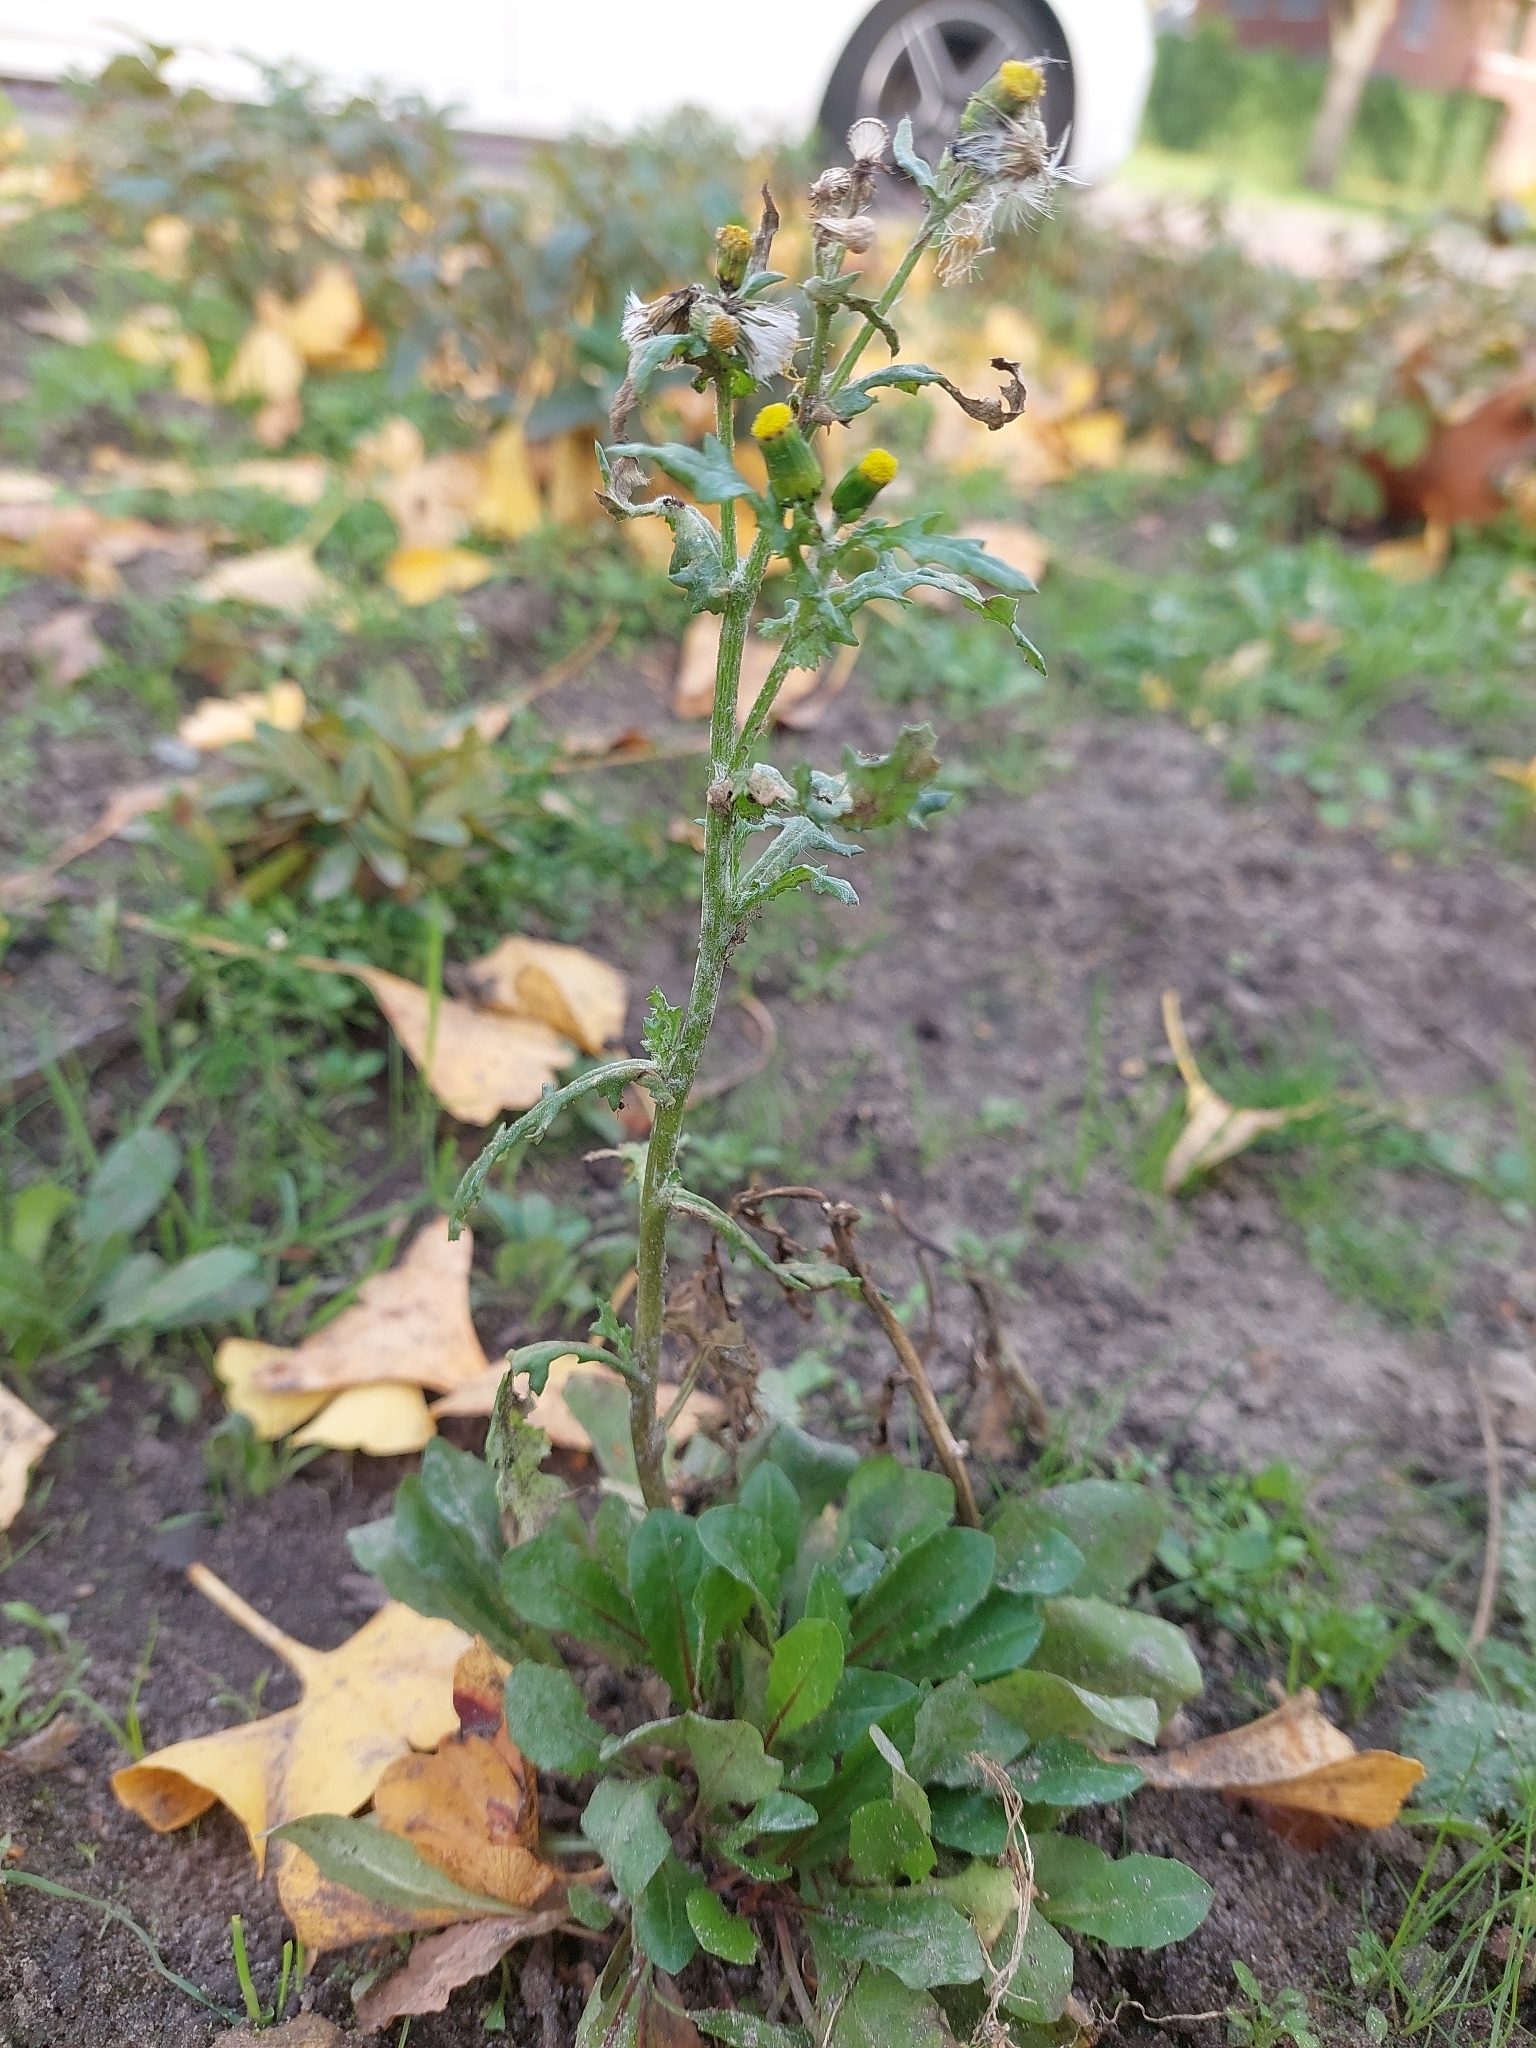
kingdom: Plantae
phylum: Tracheophyta
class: Magnoliopsida
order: Asterales
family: Asteraceae
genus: Senecio
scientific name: Senecio vulgaris
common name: Old-man-in-the-spring
